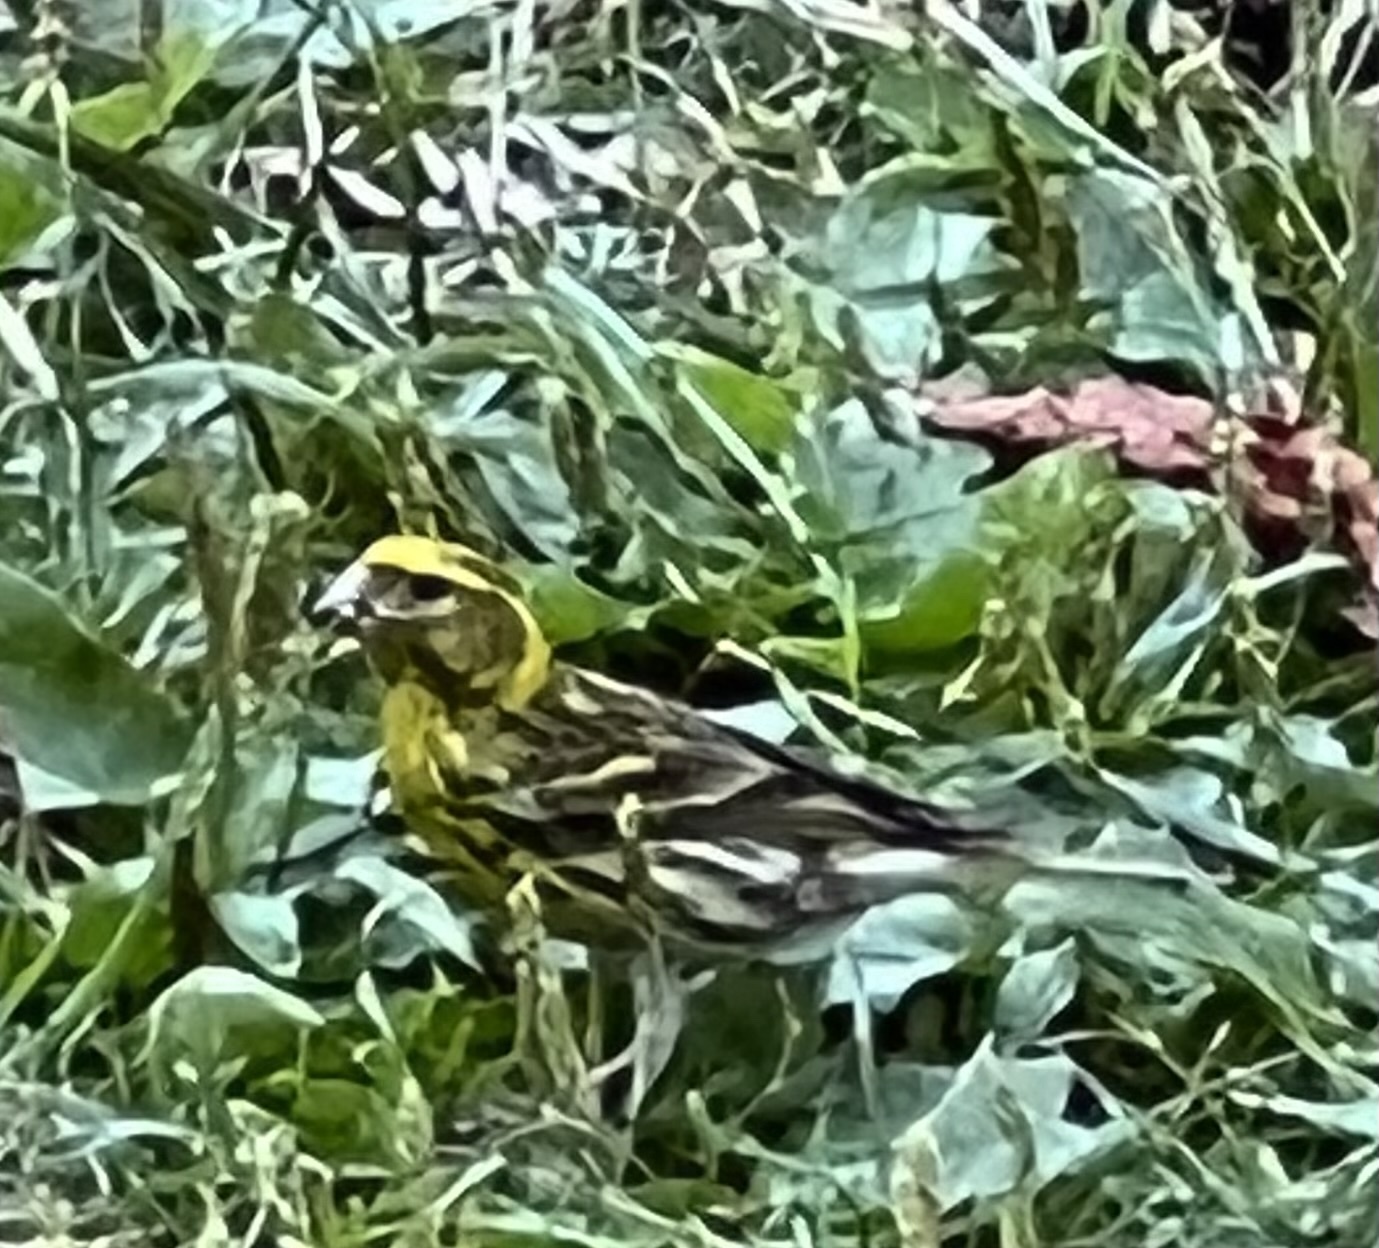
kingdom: Animalia
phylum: Chordata
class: Aves
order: Passeriformes
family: Fringillidae
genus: Serinus
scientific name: Serinus serinus
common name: European serin
